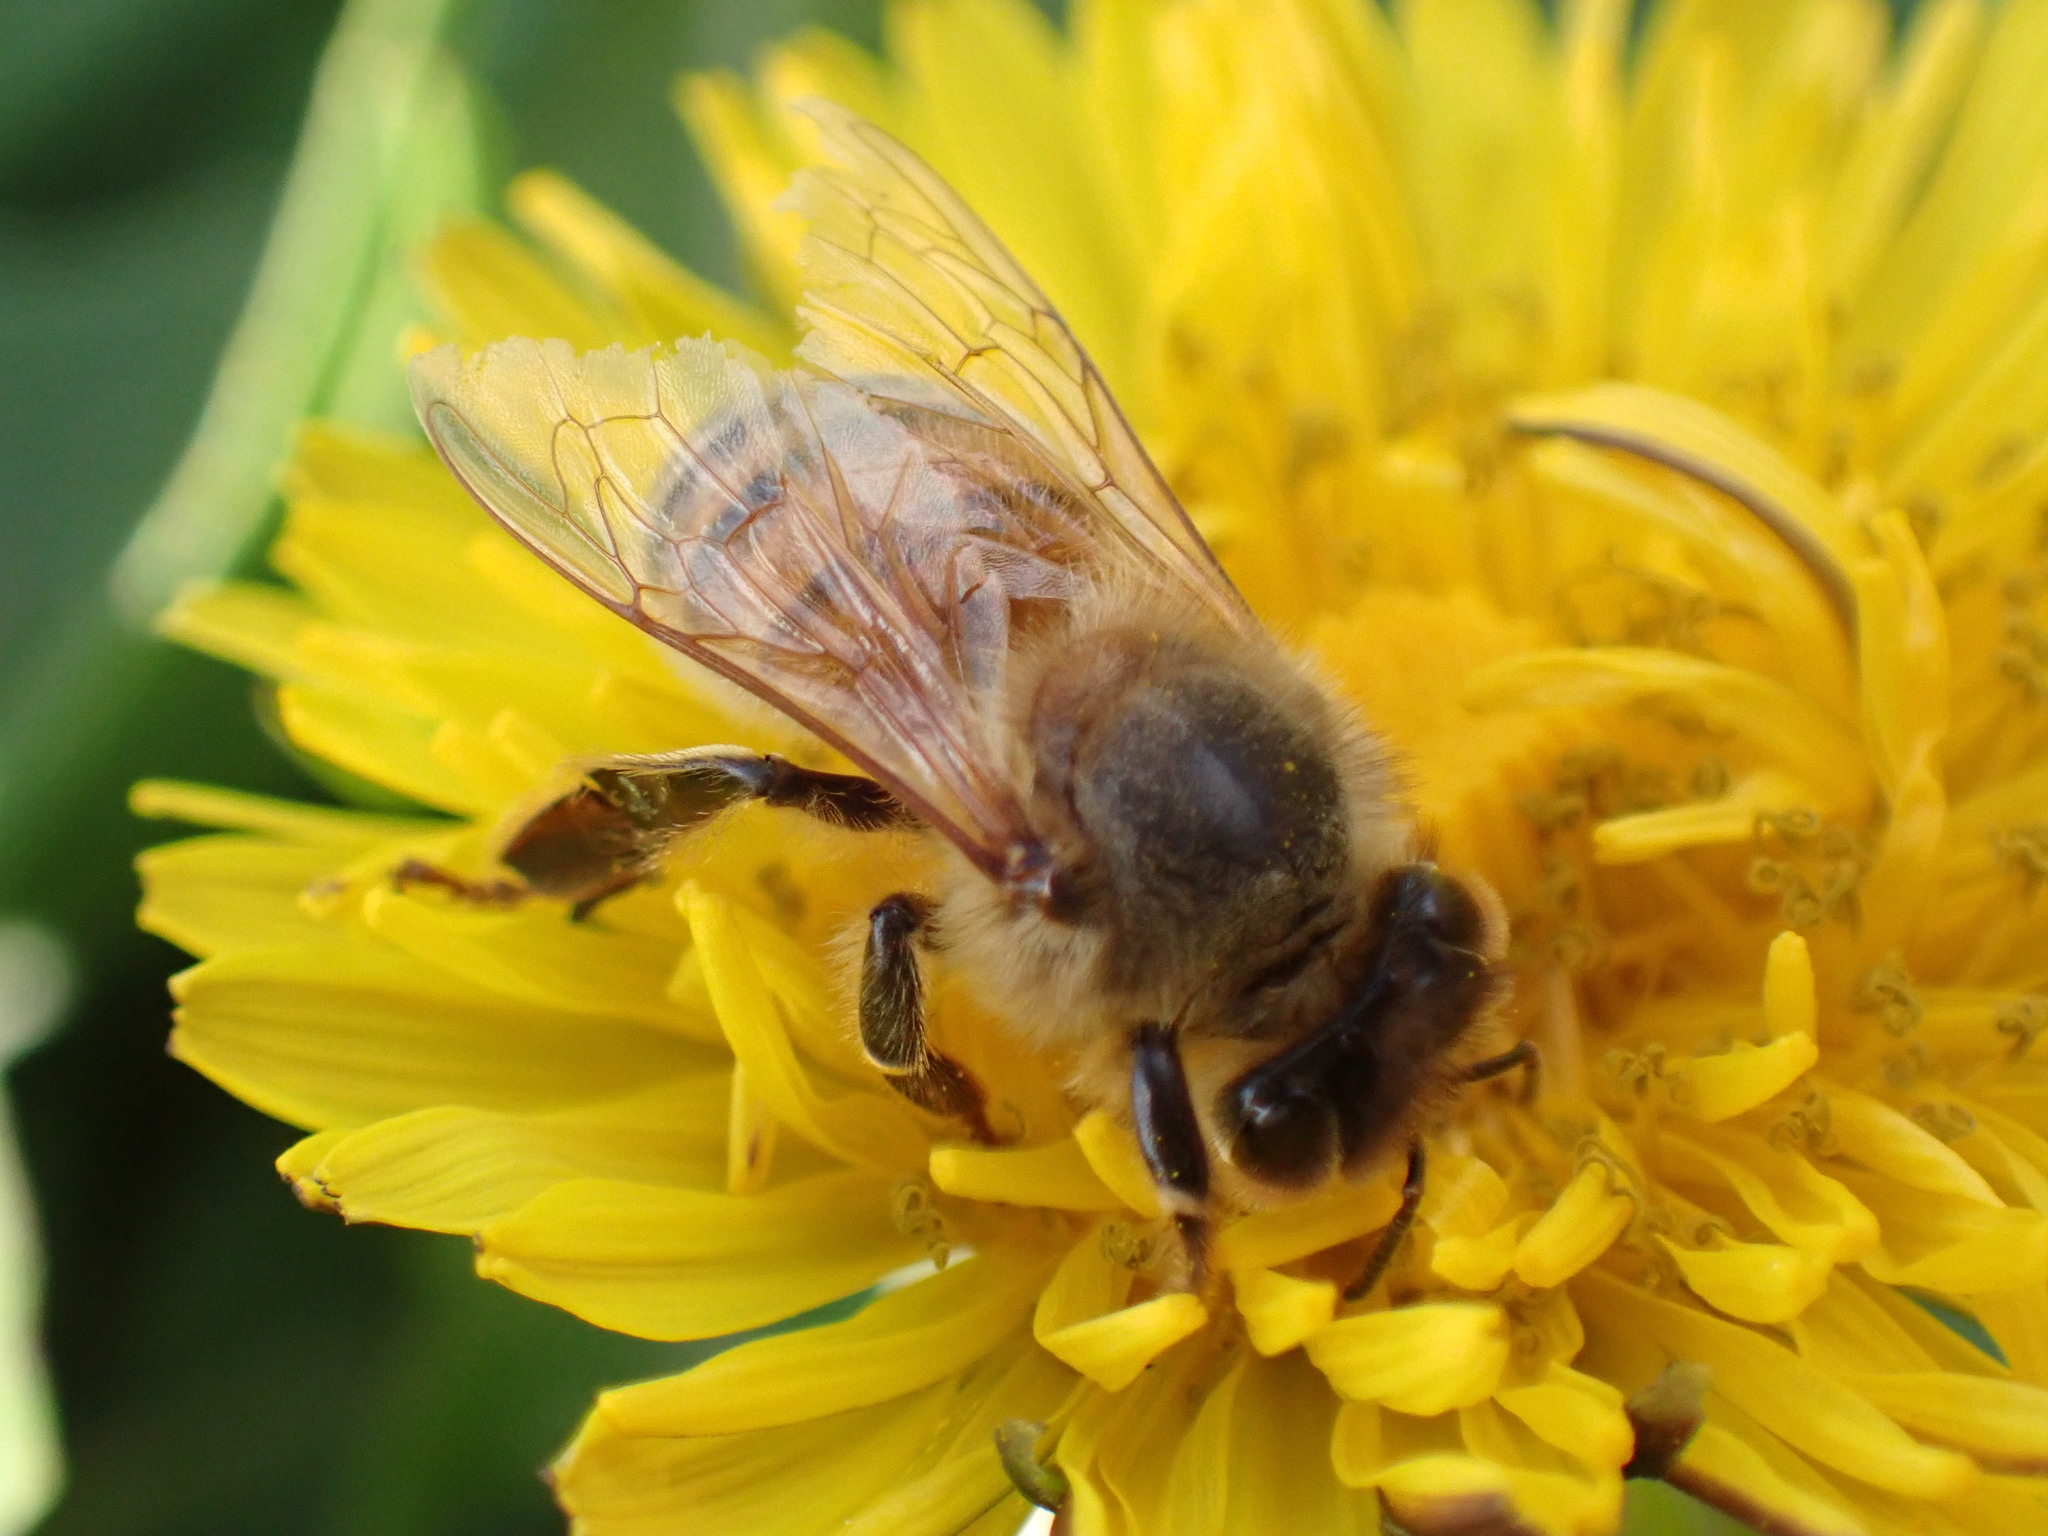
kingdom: Animalia
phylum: Arthropoda
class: Insecta
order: Hymenoptera
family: Apidae
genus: Apis
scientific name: Apis mellifera
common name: Honey bee
